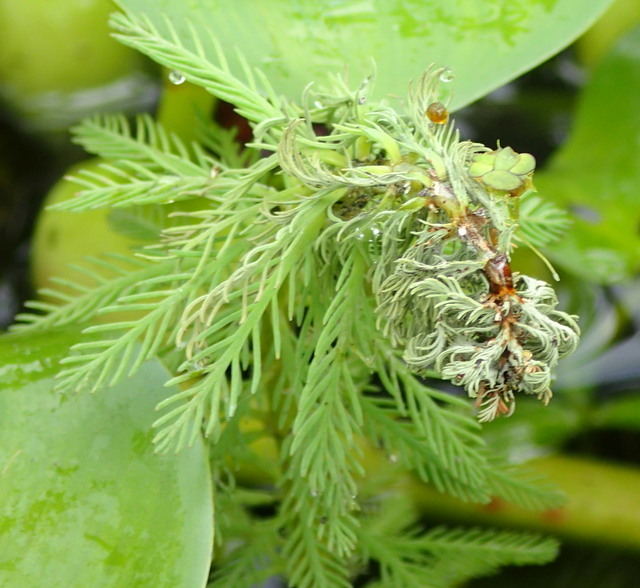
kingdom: Plantae
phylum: Tracheophyta
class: Magnoliopsida
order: Saxifragales
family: Haloragaceae
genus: Myriophyllum
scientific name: Myriophyllum aquaticum
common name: Parrot's feather
